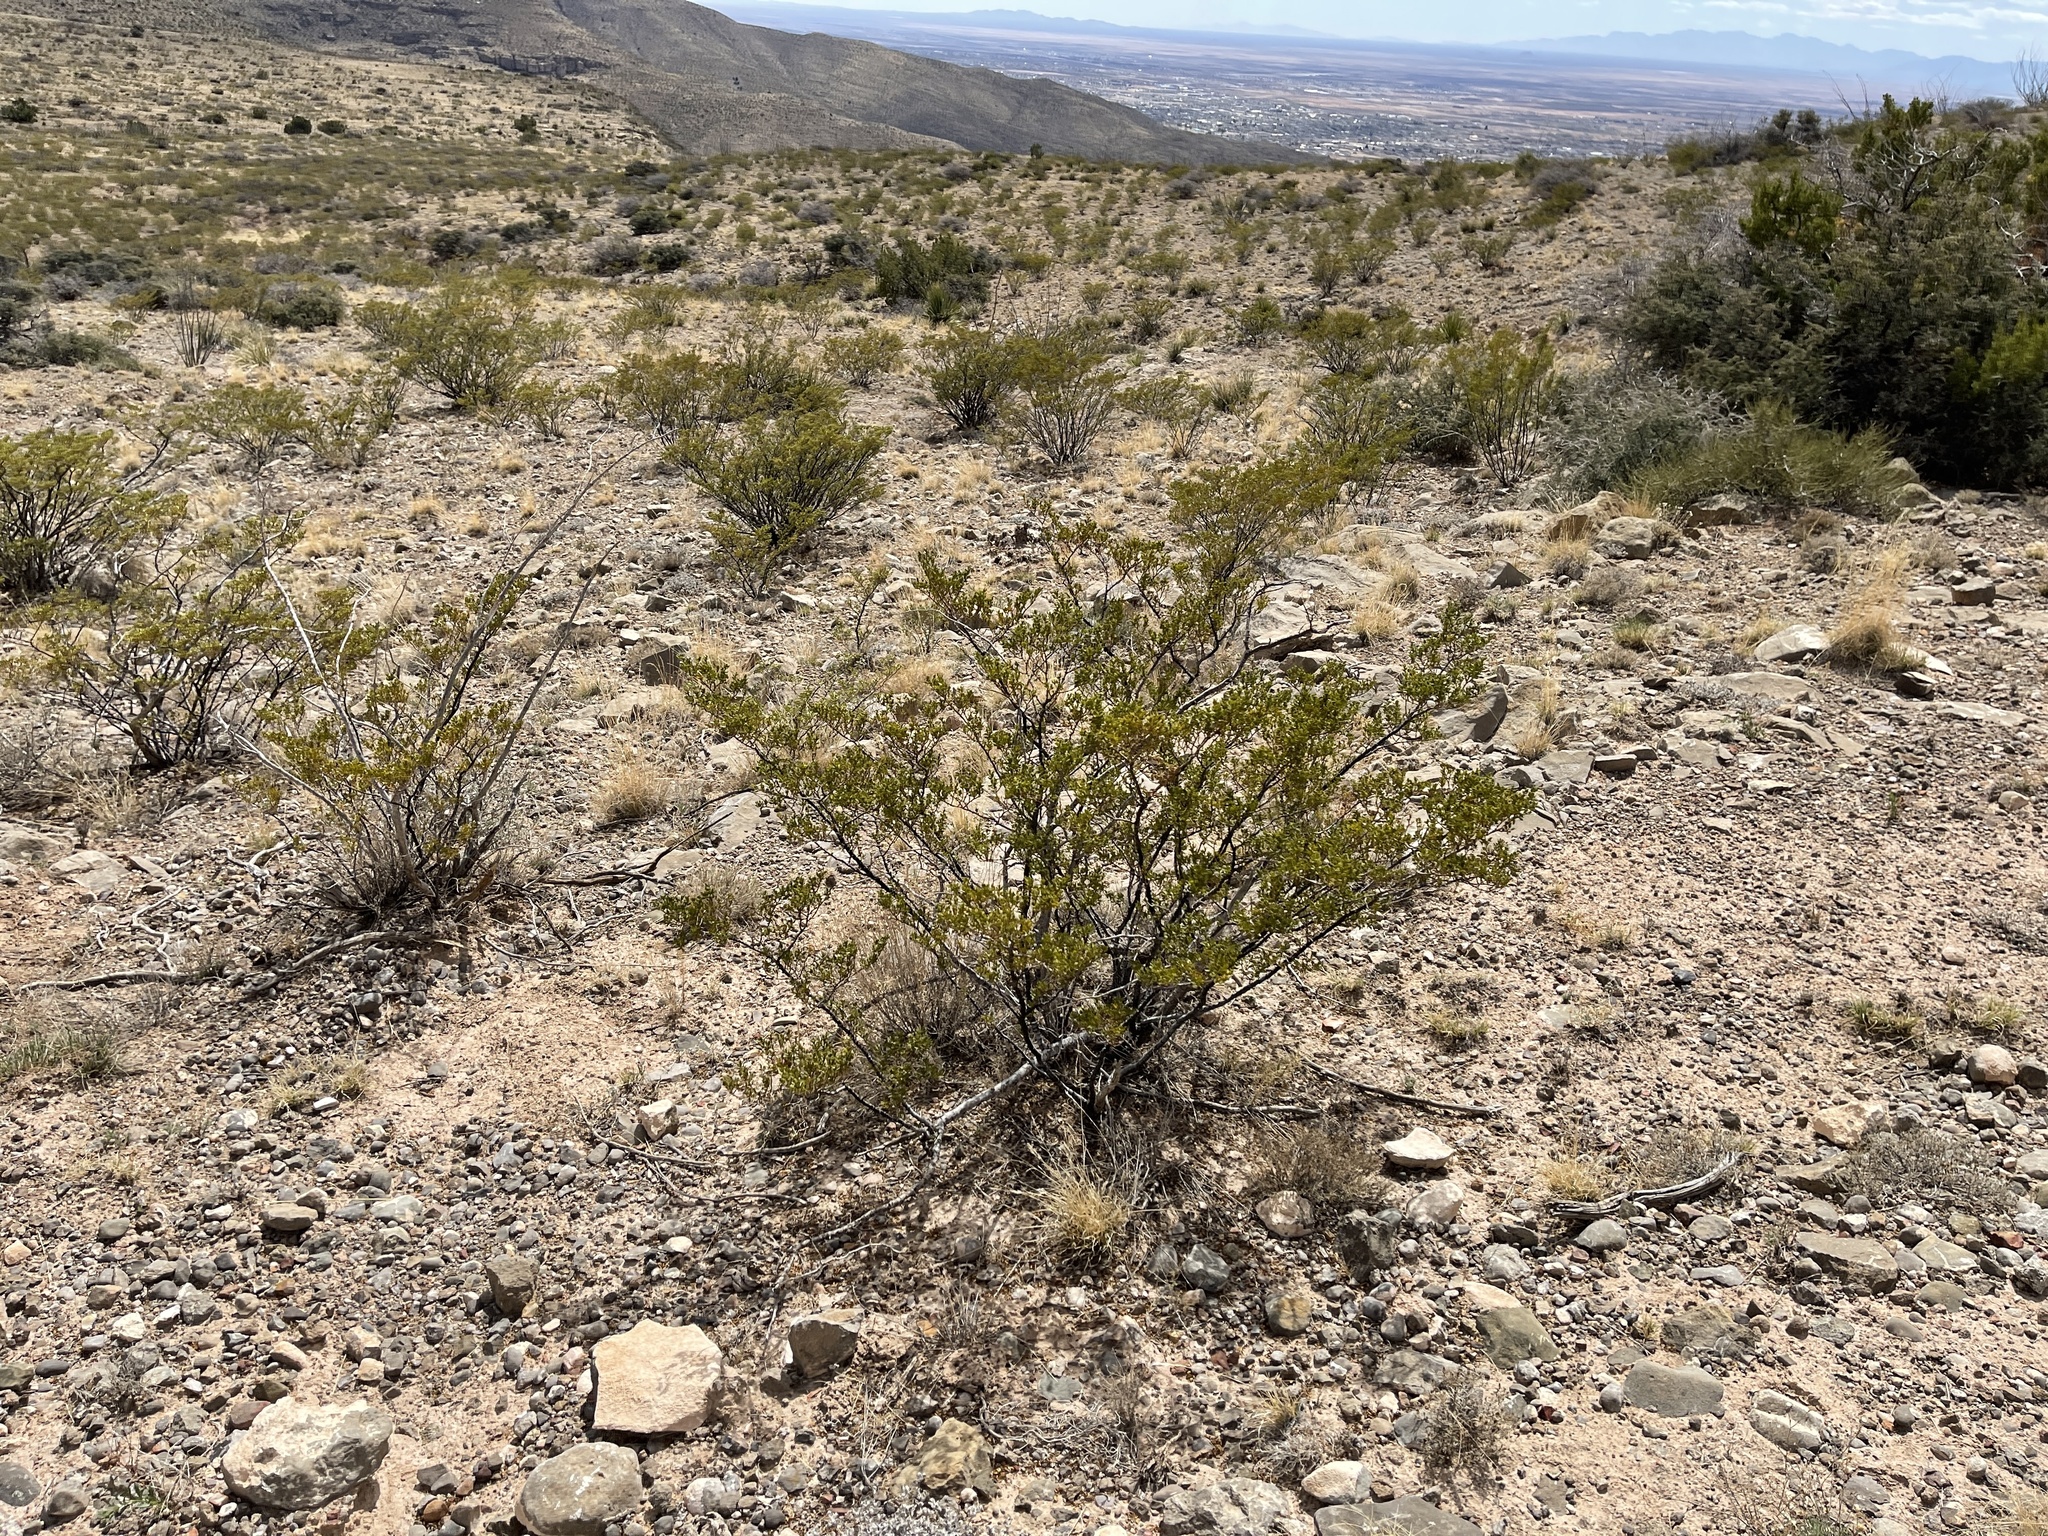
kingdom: Plantae
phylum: Tracheophyta
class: Magnoliopsida
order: Zygophyllales
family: Zygophyllaceae
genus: Larrea
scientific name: Larrea tridentata
